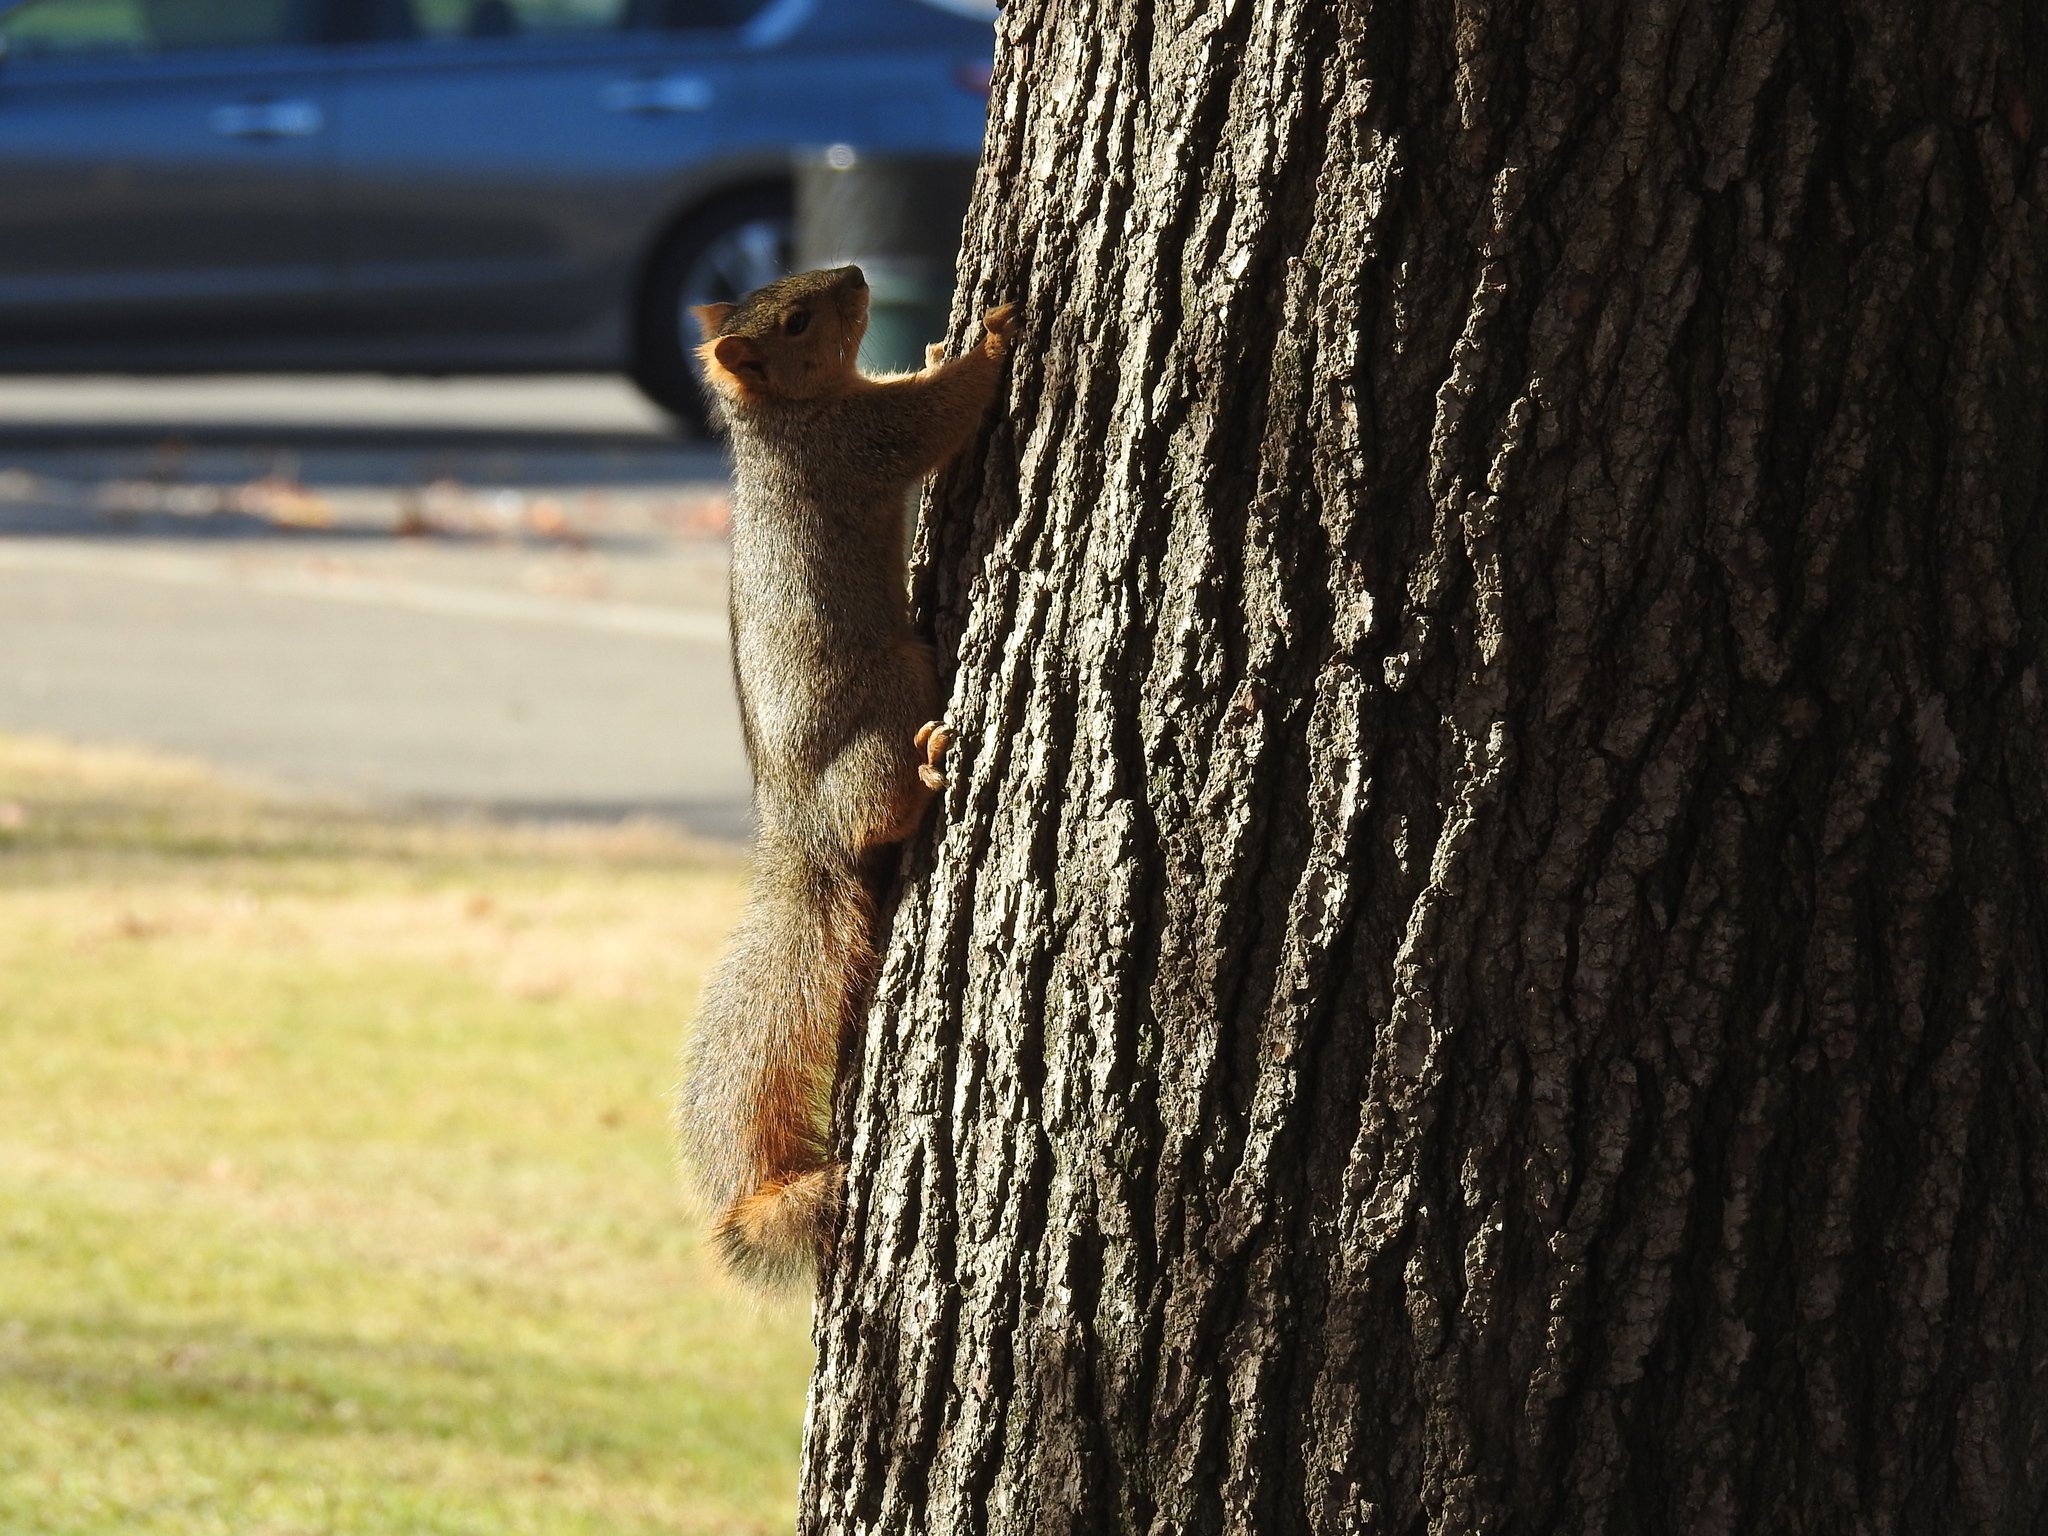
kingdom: Animalia
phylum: Chordata
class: Mammalia
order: Rodentia
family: Sciuridae
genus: Sciurus
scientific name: Sciurus niger
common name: Fox squirrel
